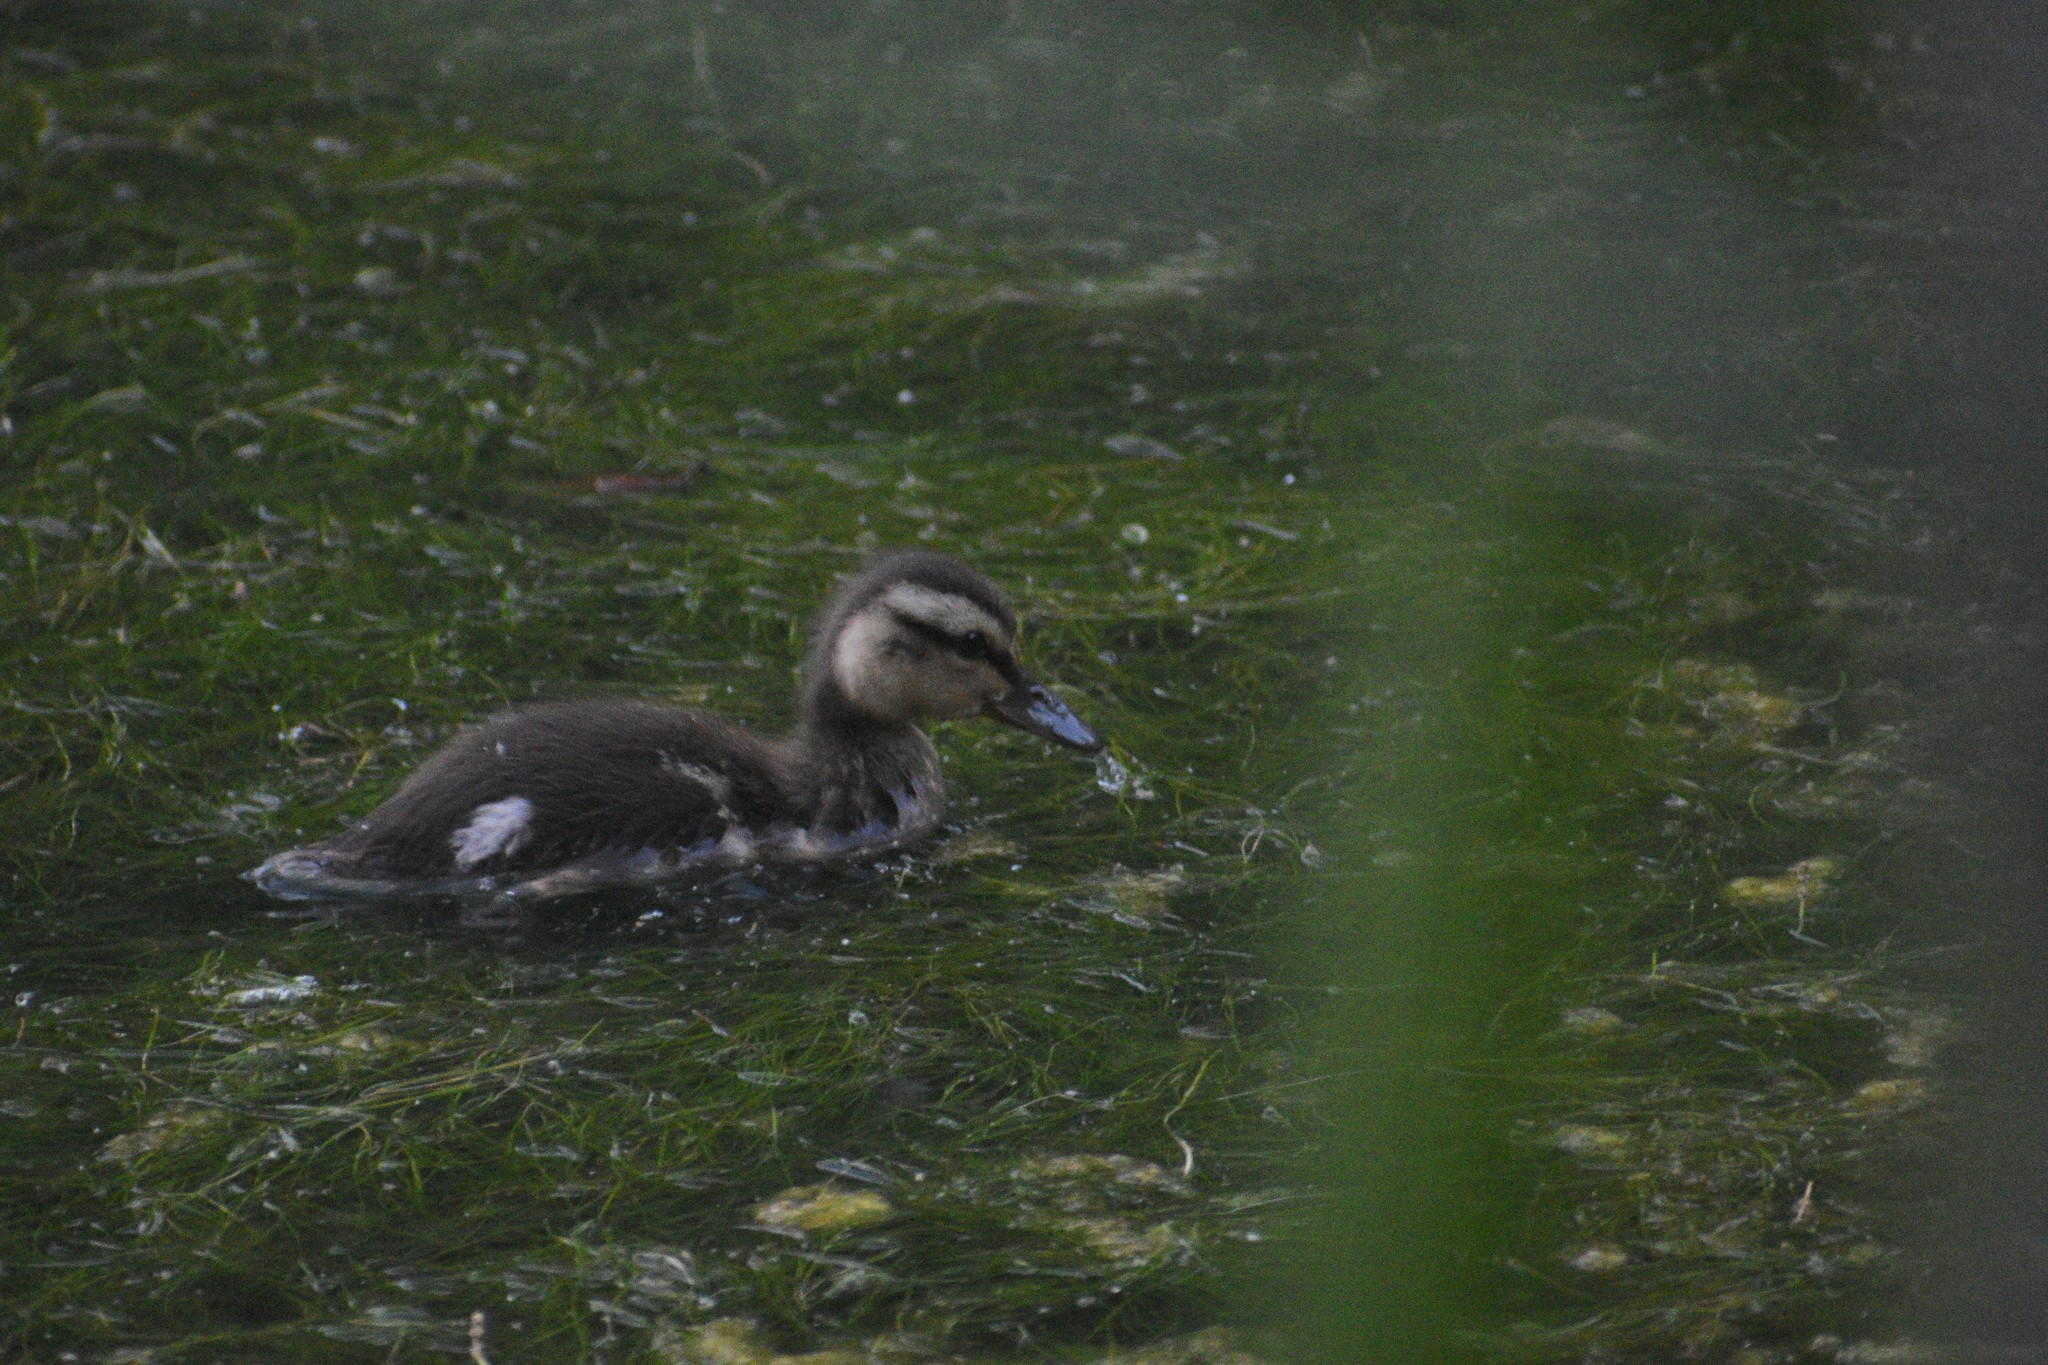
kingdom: Animalia
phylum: Chordata
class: Aves
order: Anseriformes
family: Anatidae
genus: Anas
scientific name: Anas platyrhynchos
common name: Mallard
